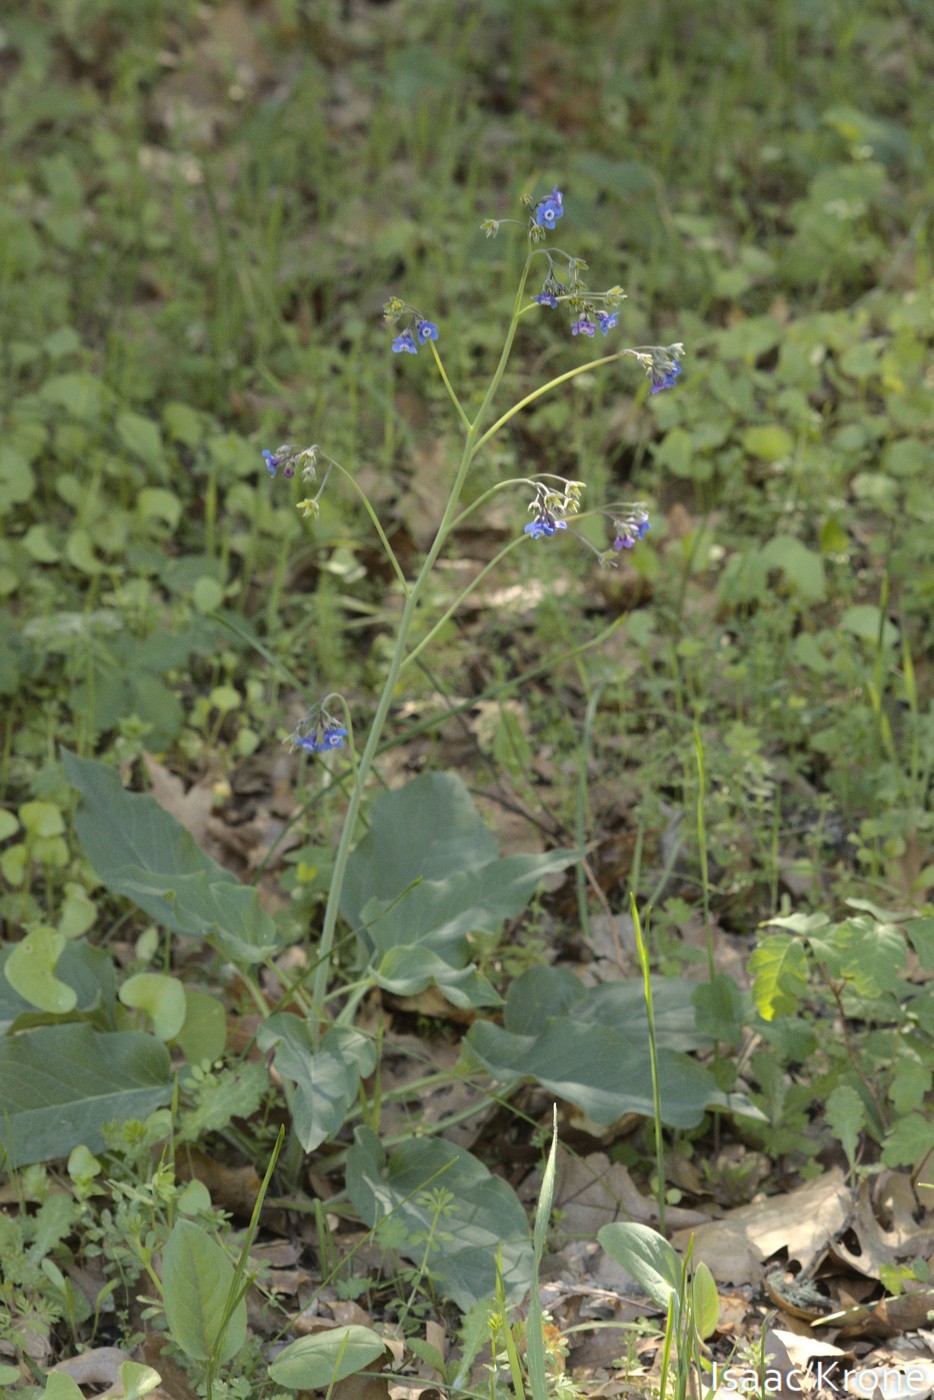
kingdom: Plantae
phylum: Tracheophyta
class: Magnoliopsida
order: Boraginales
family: Boraginaceae
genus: Adelinia
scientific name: Adelinia grande
